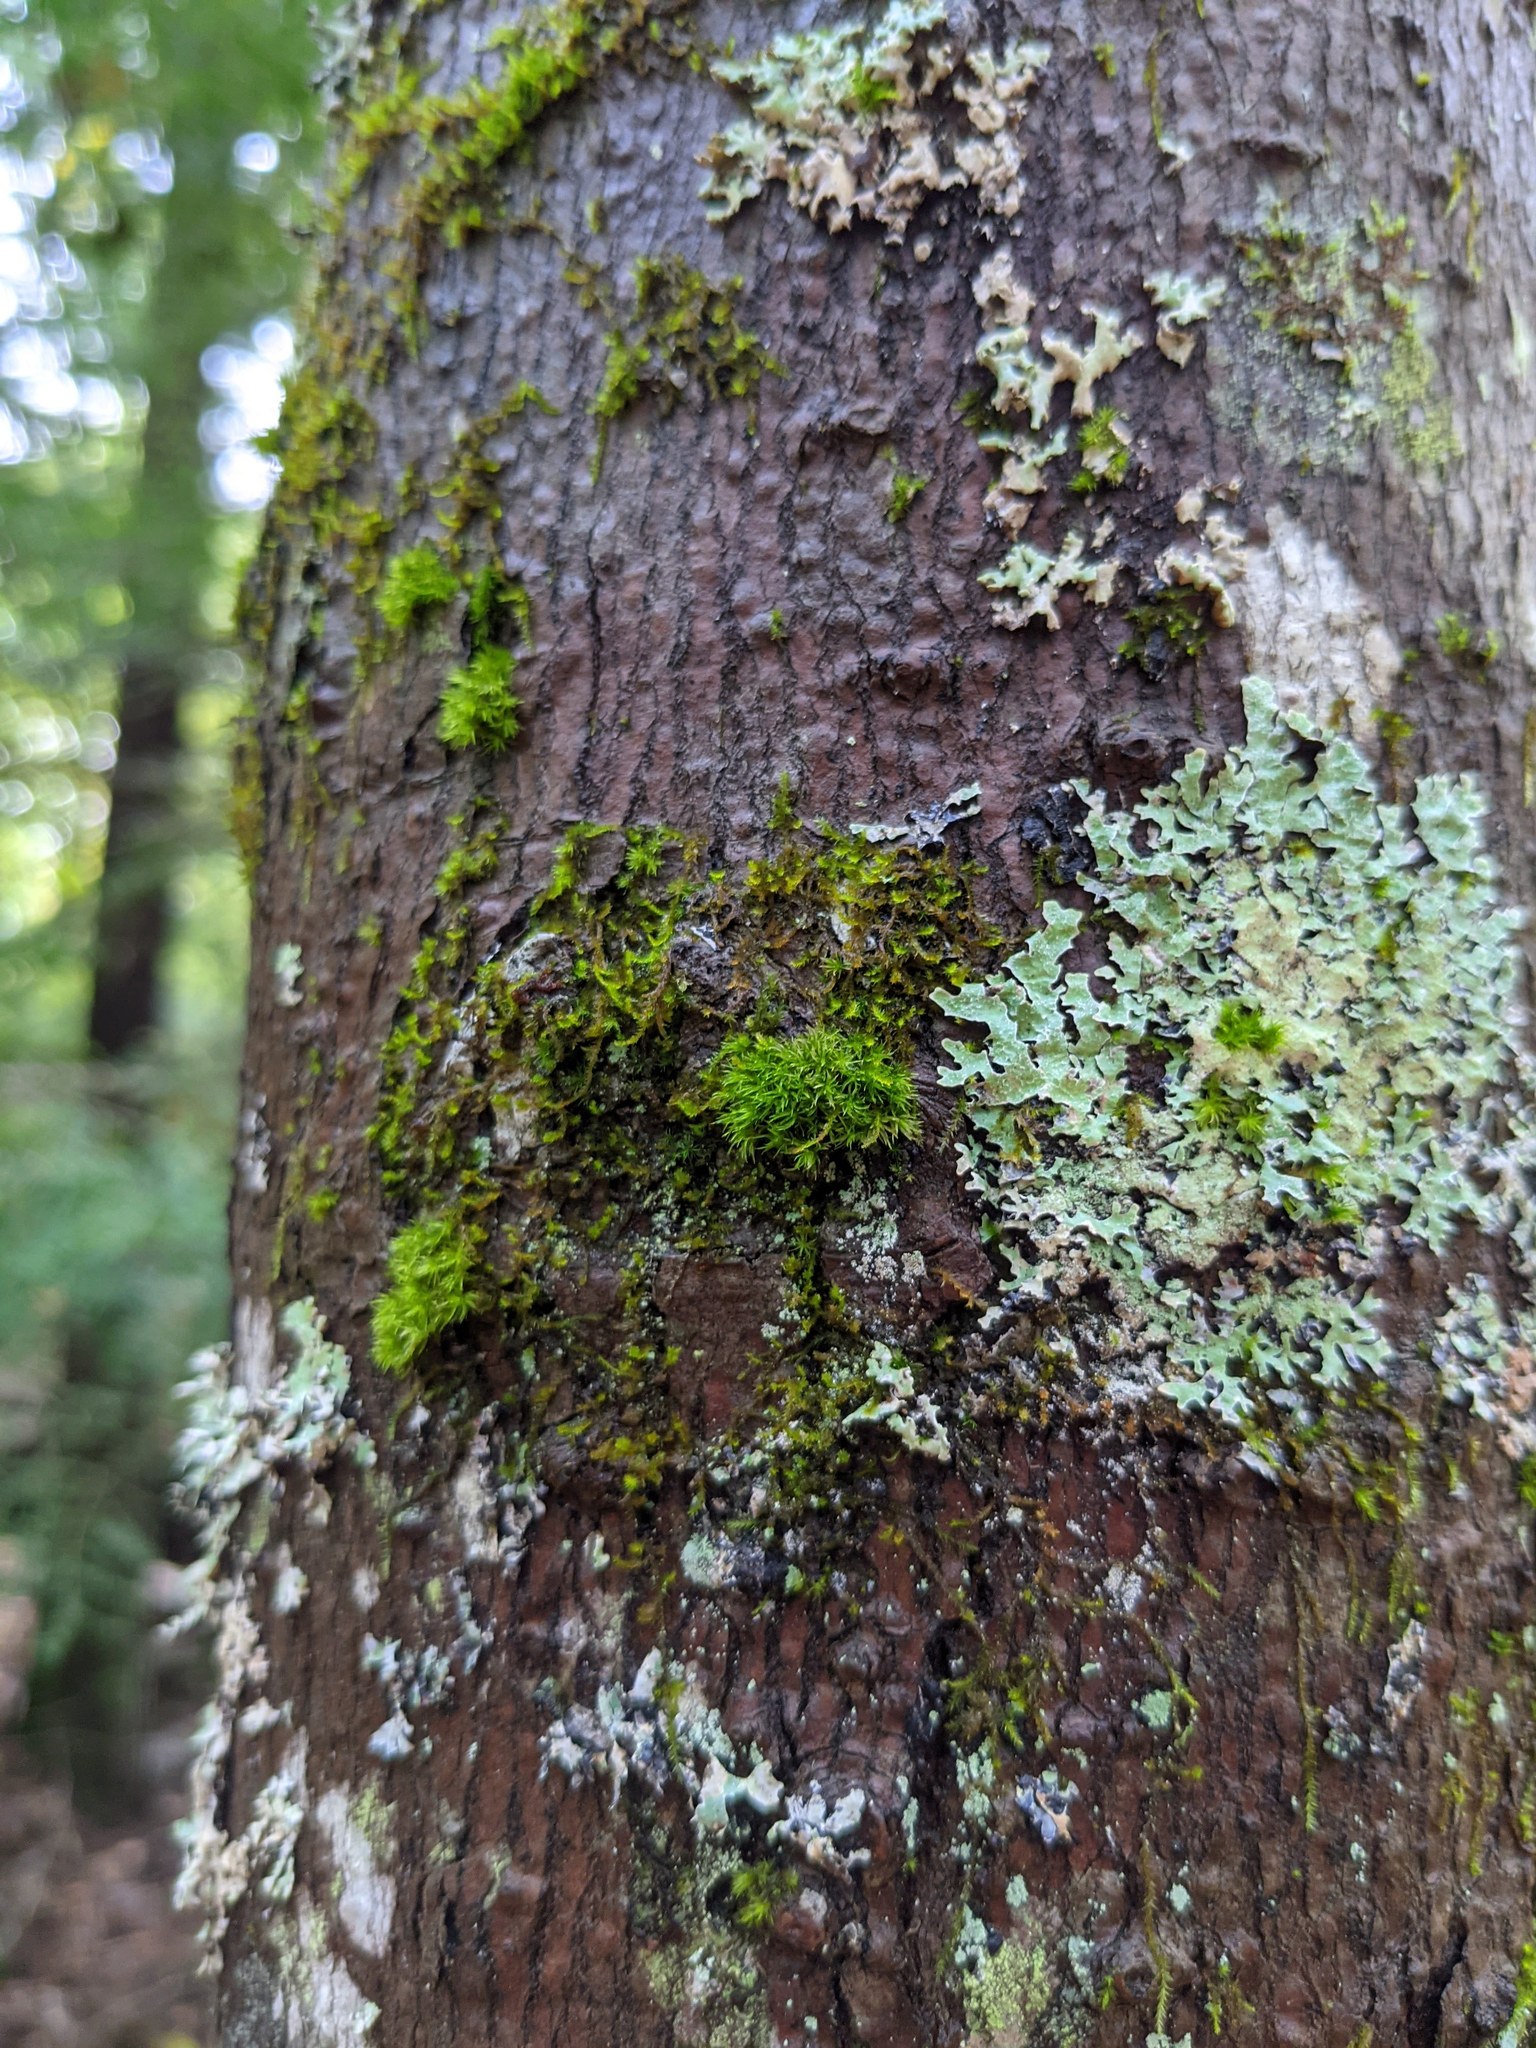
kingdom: Plantae
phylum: Bryophyta
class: Bryopsida
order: Orthotrichales
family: Orthotrichaceae
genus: Ulota
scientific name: Ulota crispa
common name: Crisped pincushion moss
